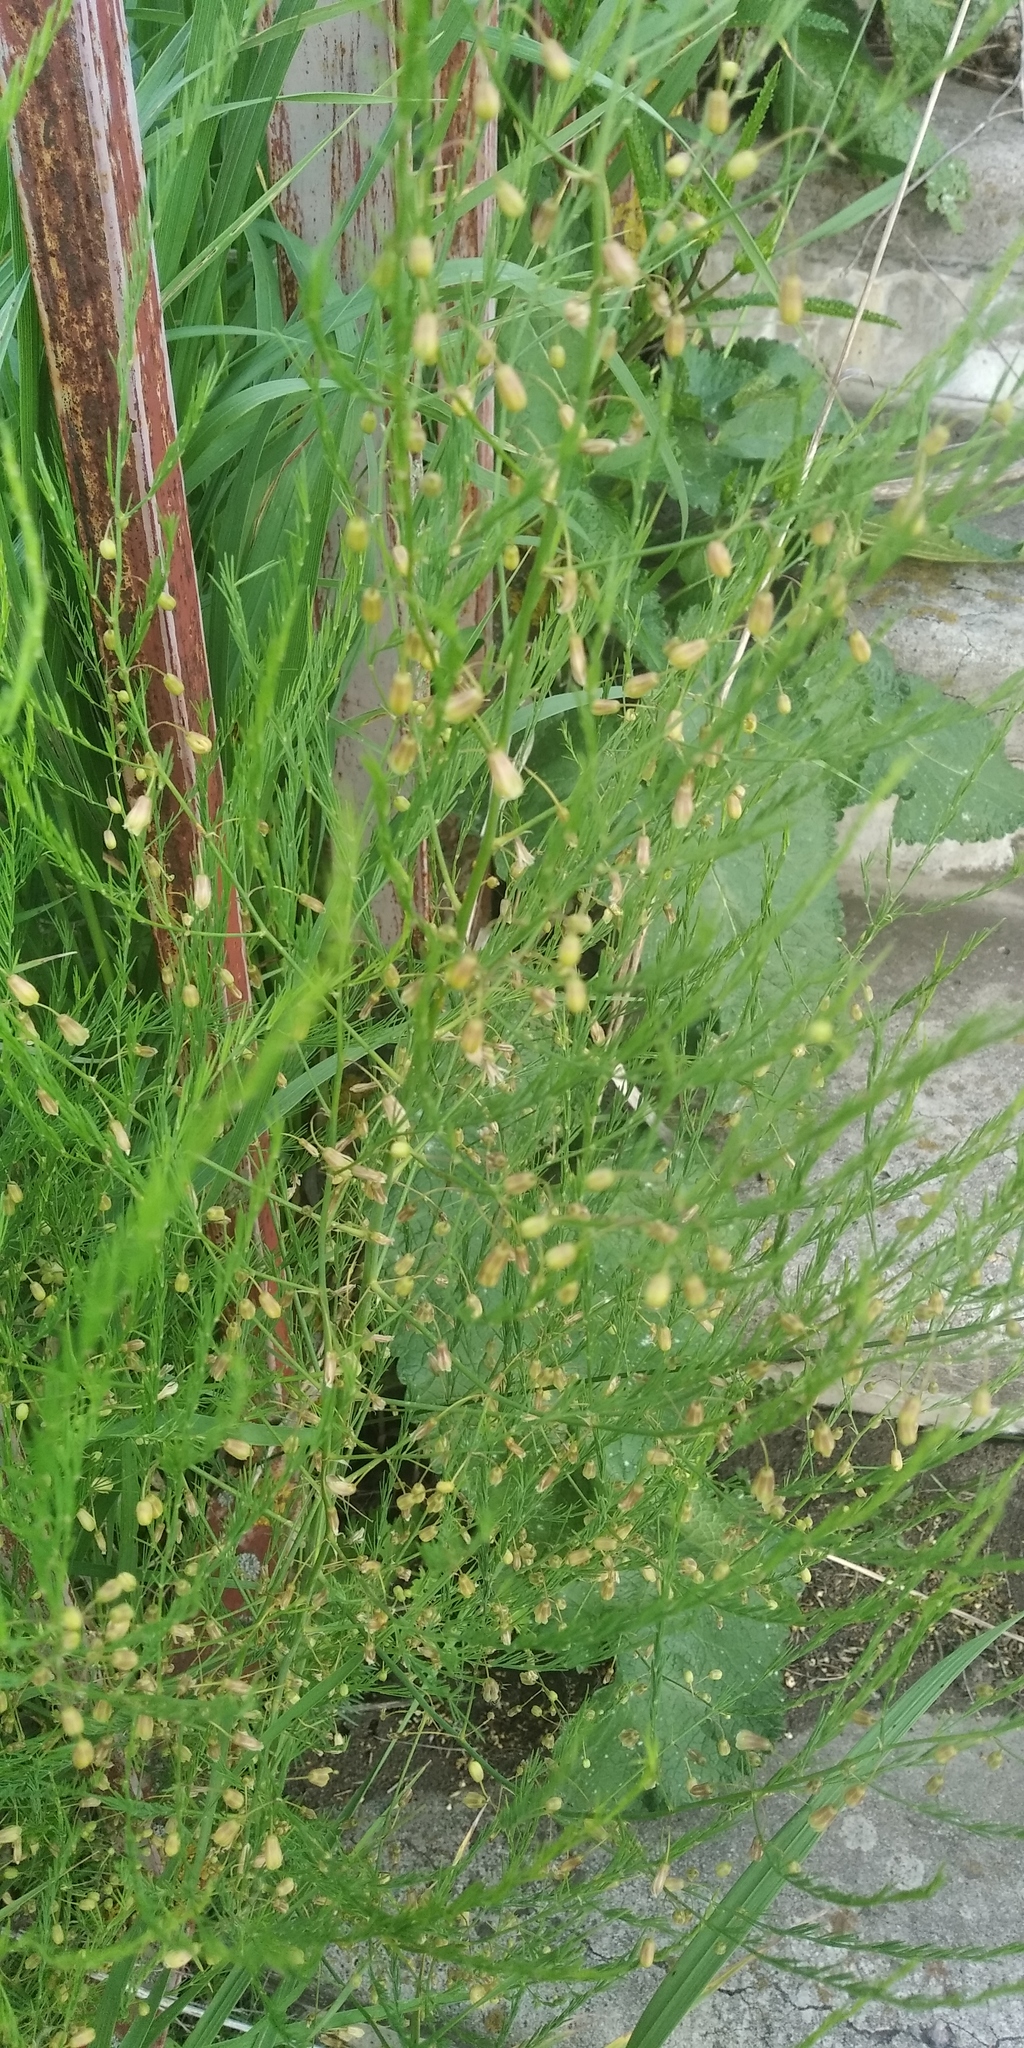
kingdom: Plantae
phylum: Tracheophyta
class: Liliopsida
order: Asparagales
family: Asparagaceae
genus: Asparagus
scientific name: Asparagus officinalis
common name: Garden asparagus
